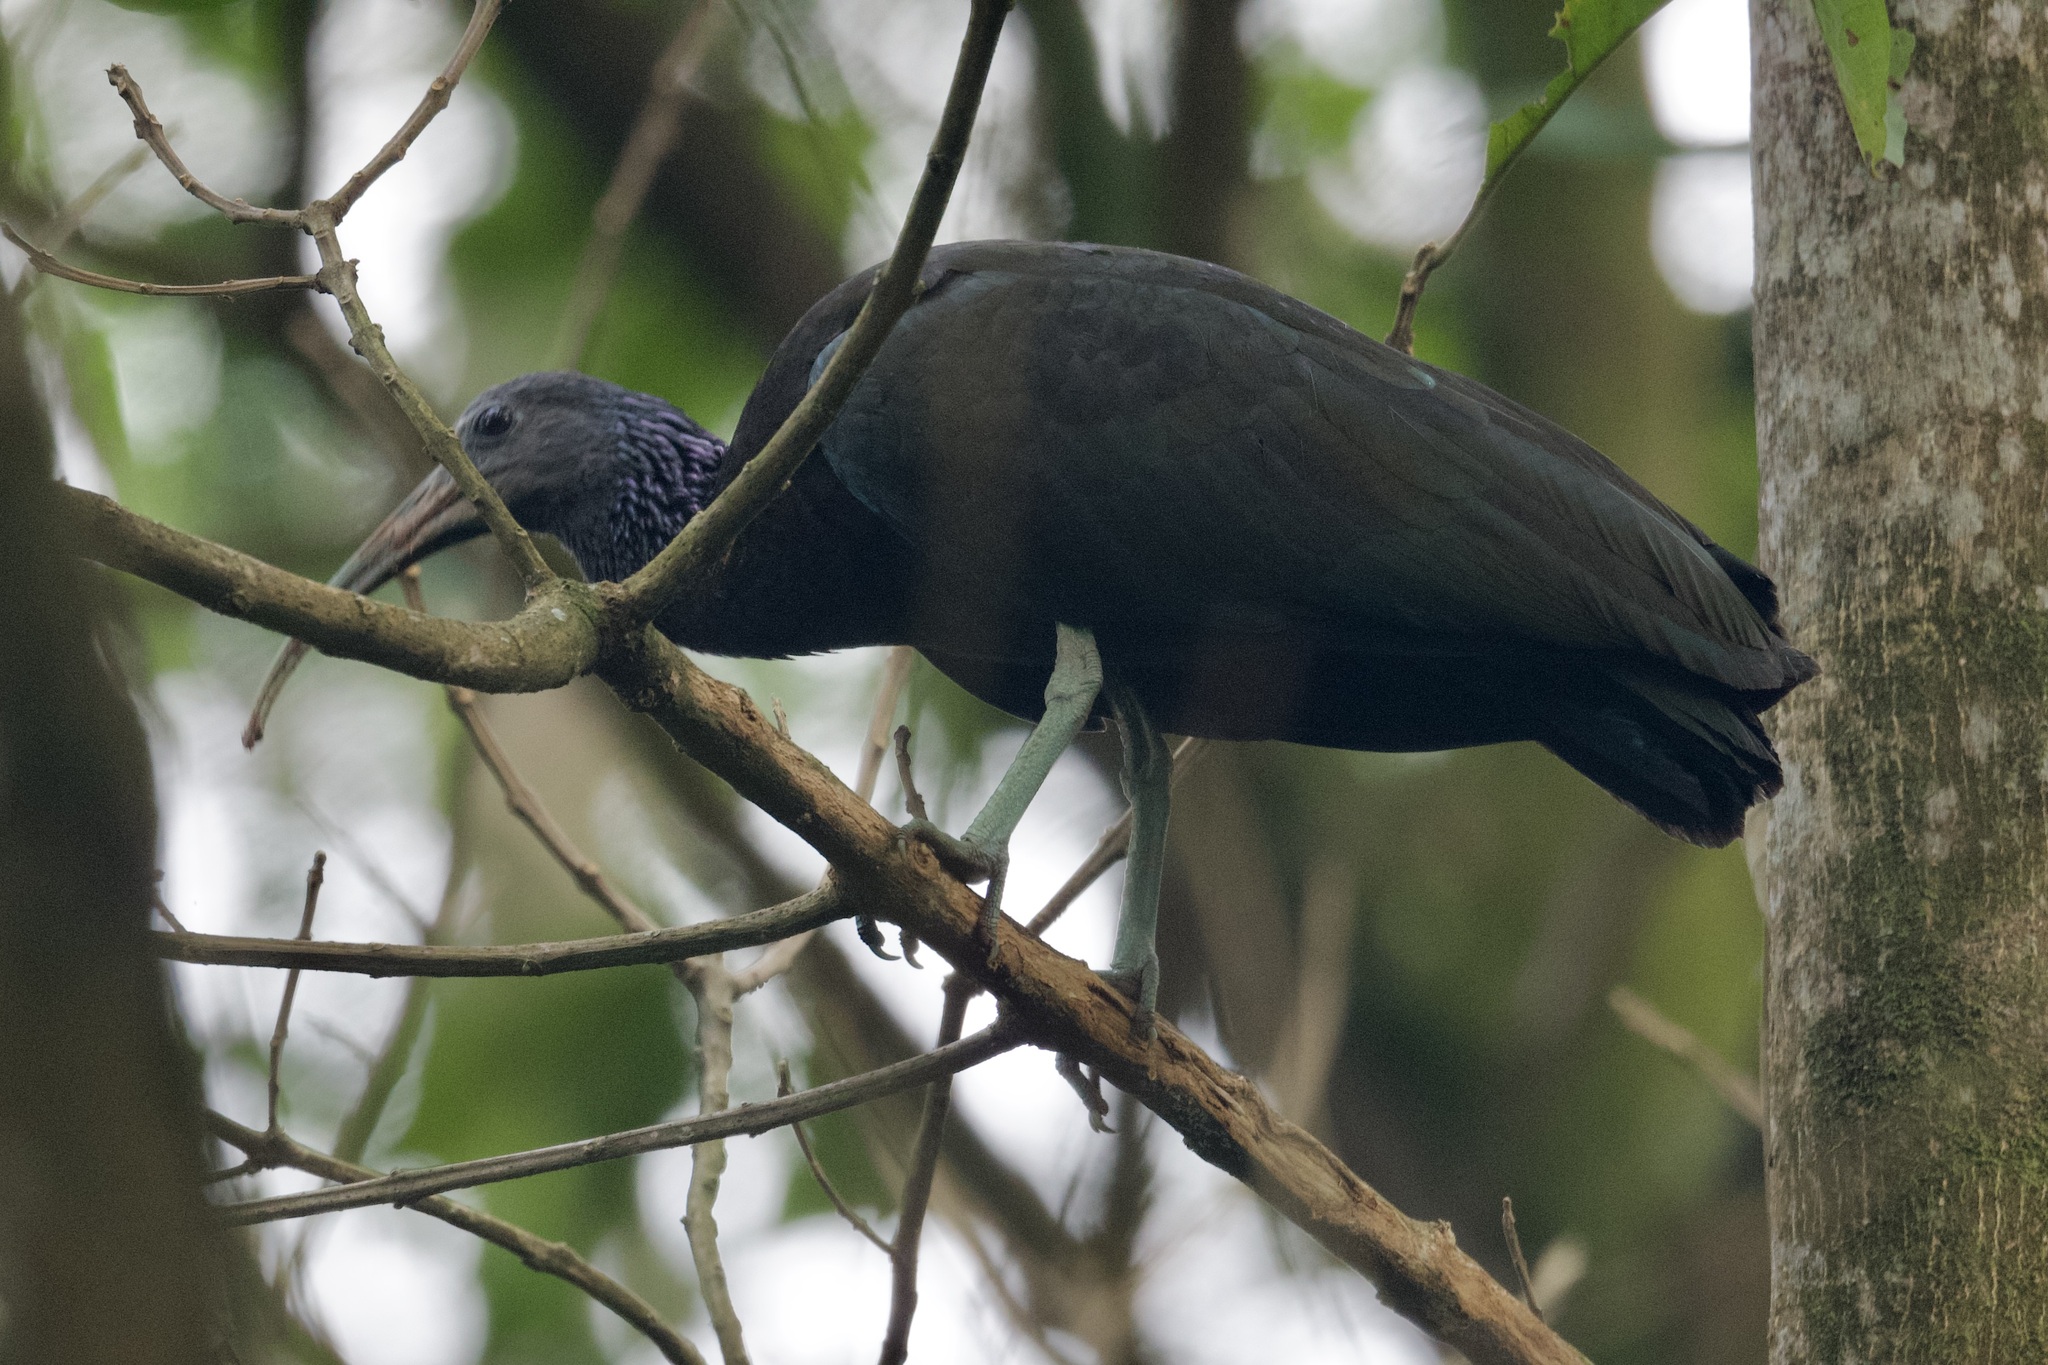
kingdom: Animalia
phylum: Chordata
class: Aves
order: Pelecaniformes
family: Threskiornithidae
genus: Mesembrinibis
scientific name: Mesembrinibis cayennensis
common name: Green ibis
